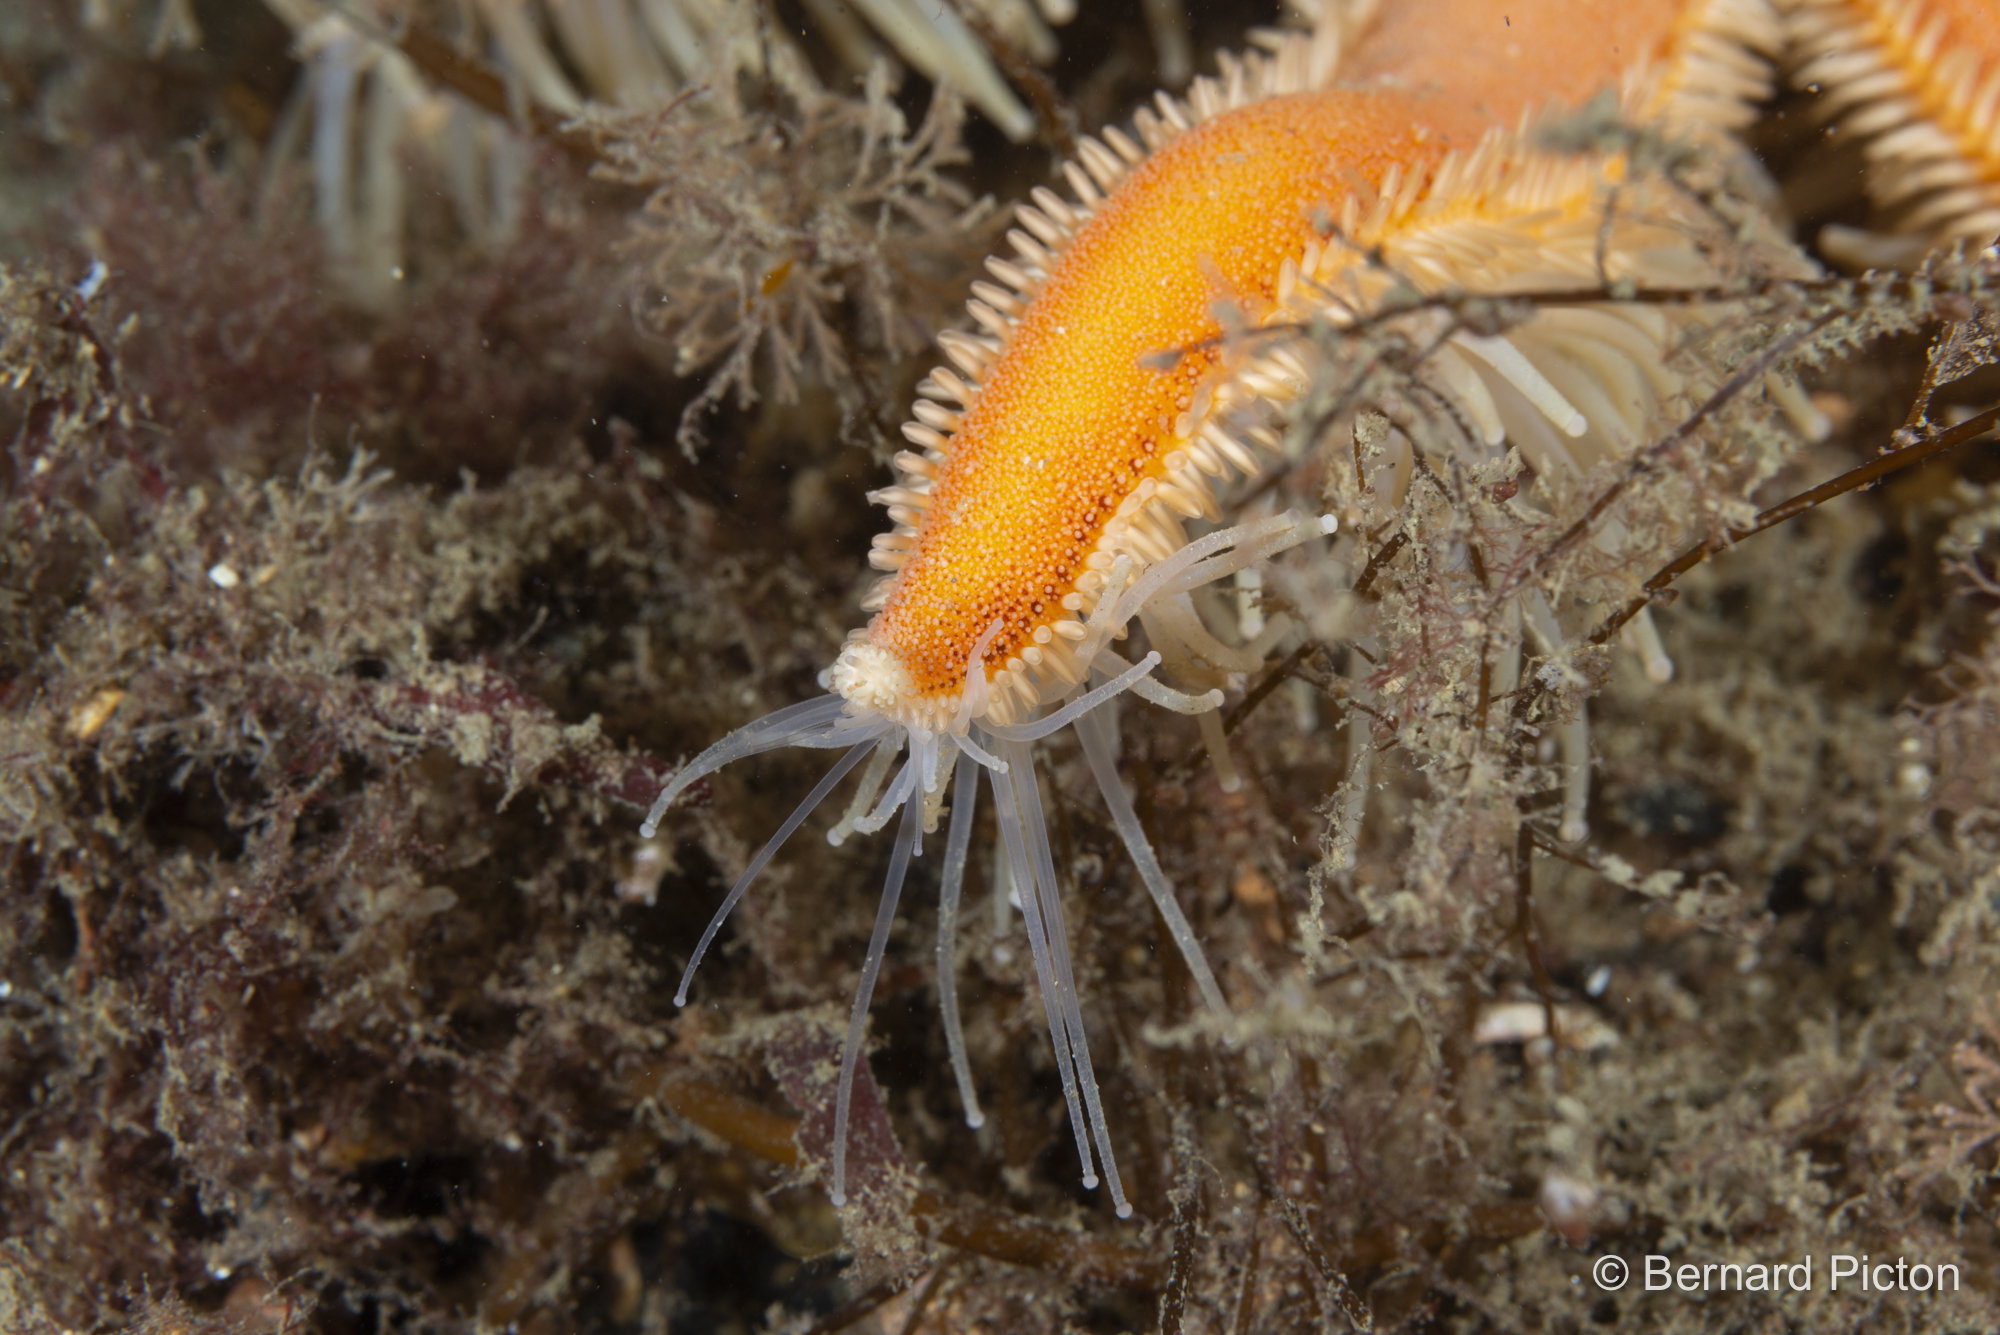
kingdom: Animalia
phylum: Echinodermata
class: Asteroidea
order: Paxillosida
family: Luidiidae
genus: Luidia
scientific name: Luidia ciliaris
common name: Seven-armed starfish
